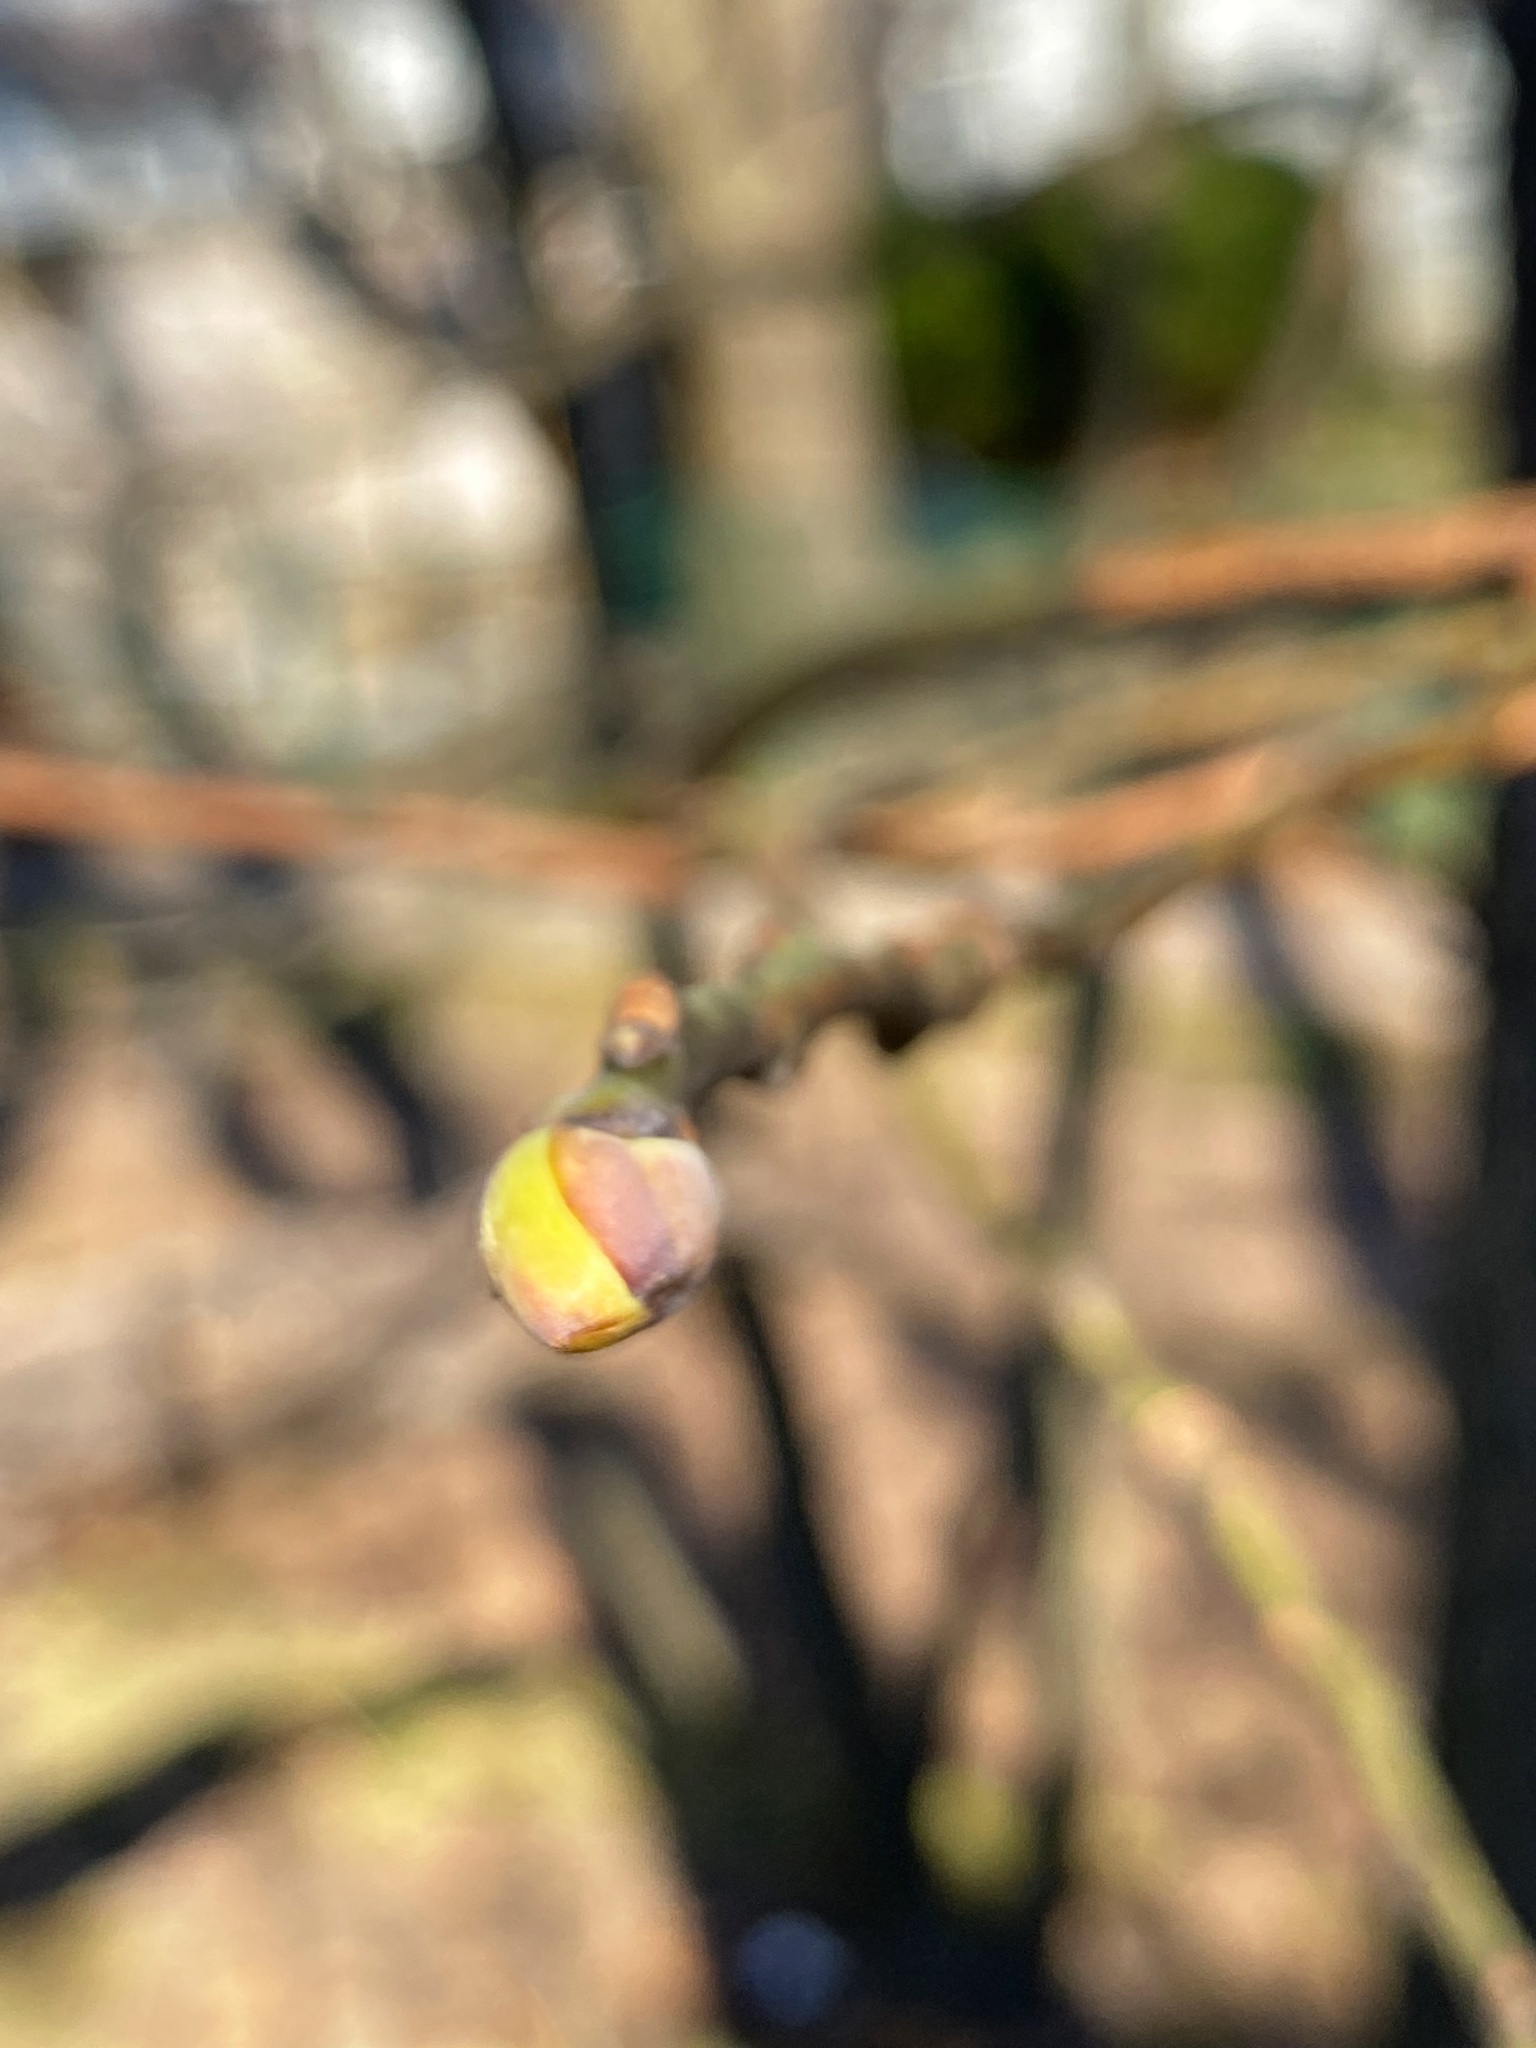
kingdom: Plantae
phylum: Tracheophyta
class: Magnoliopsida
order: Laurales
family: Lauraceae
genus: Sassafras
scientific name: Sassafras albidum
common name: Sassafras
